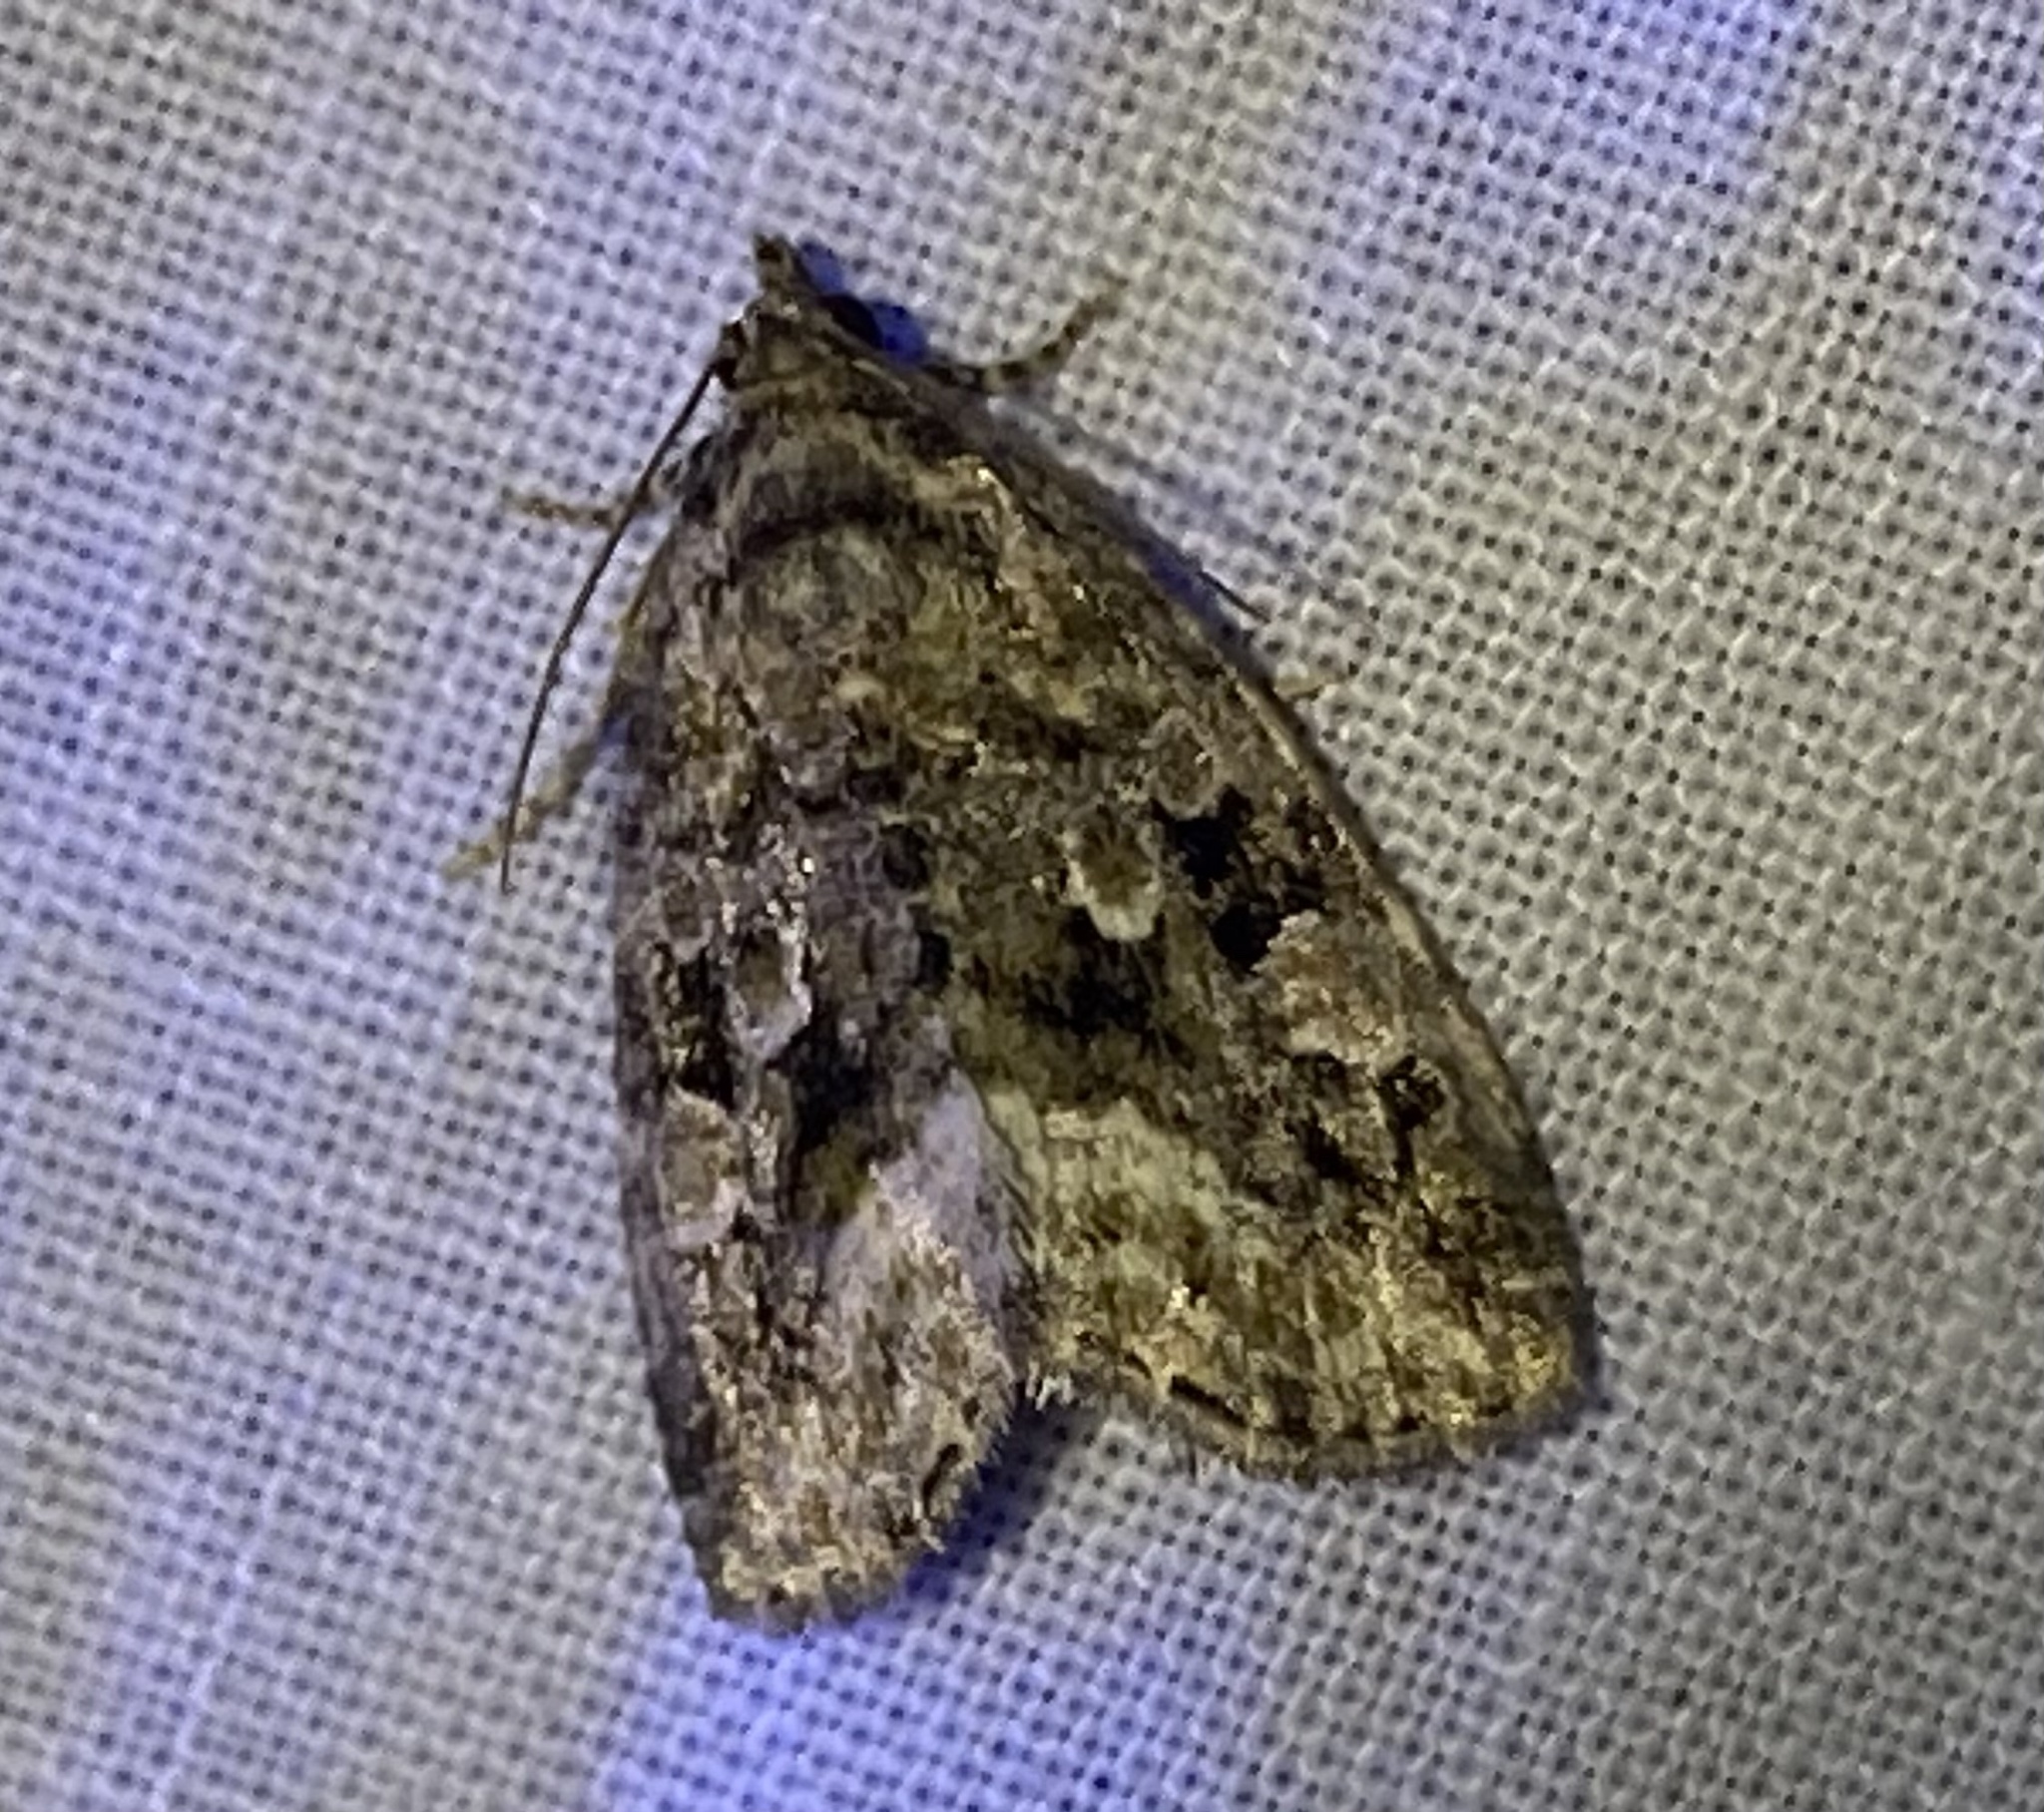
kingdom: Animalia
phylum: Arthropoda
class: Insecta
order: Lepidoptera
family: Noctuidae
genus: Protodeltote
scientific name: Protodeltote muscosula
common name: Large mossy glyph
